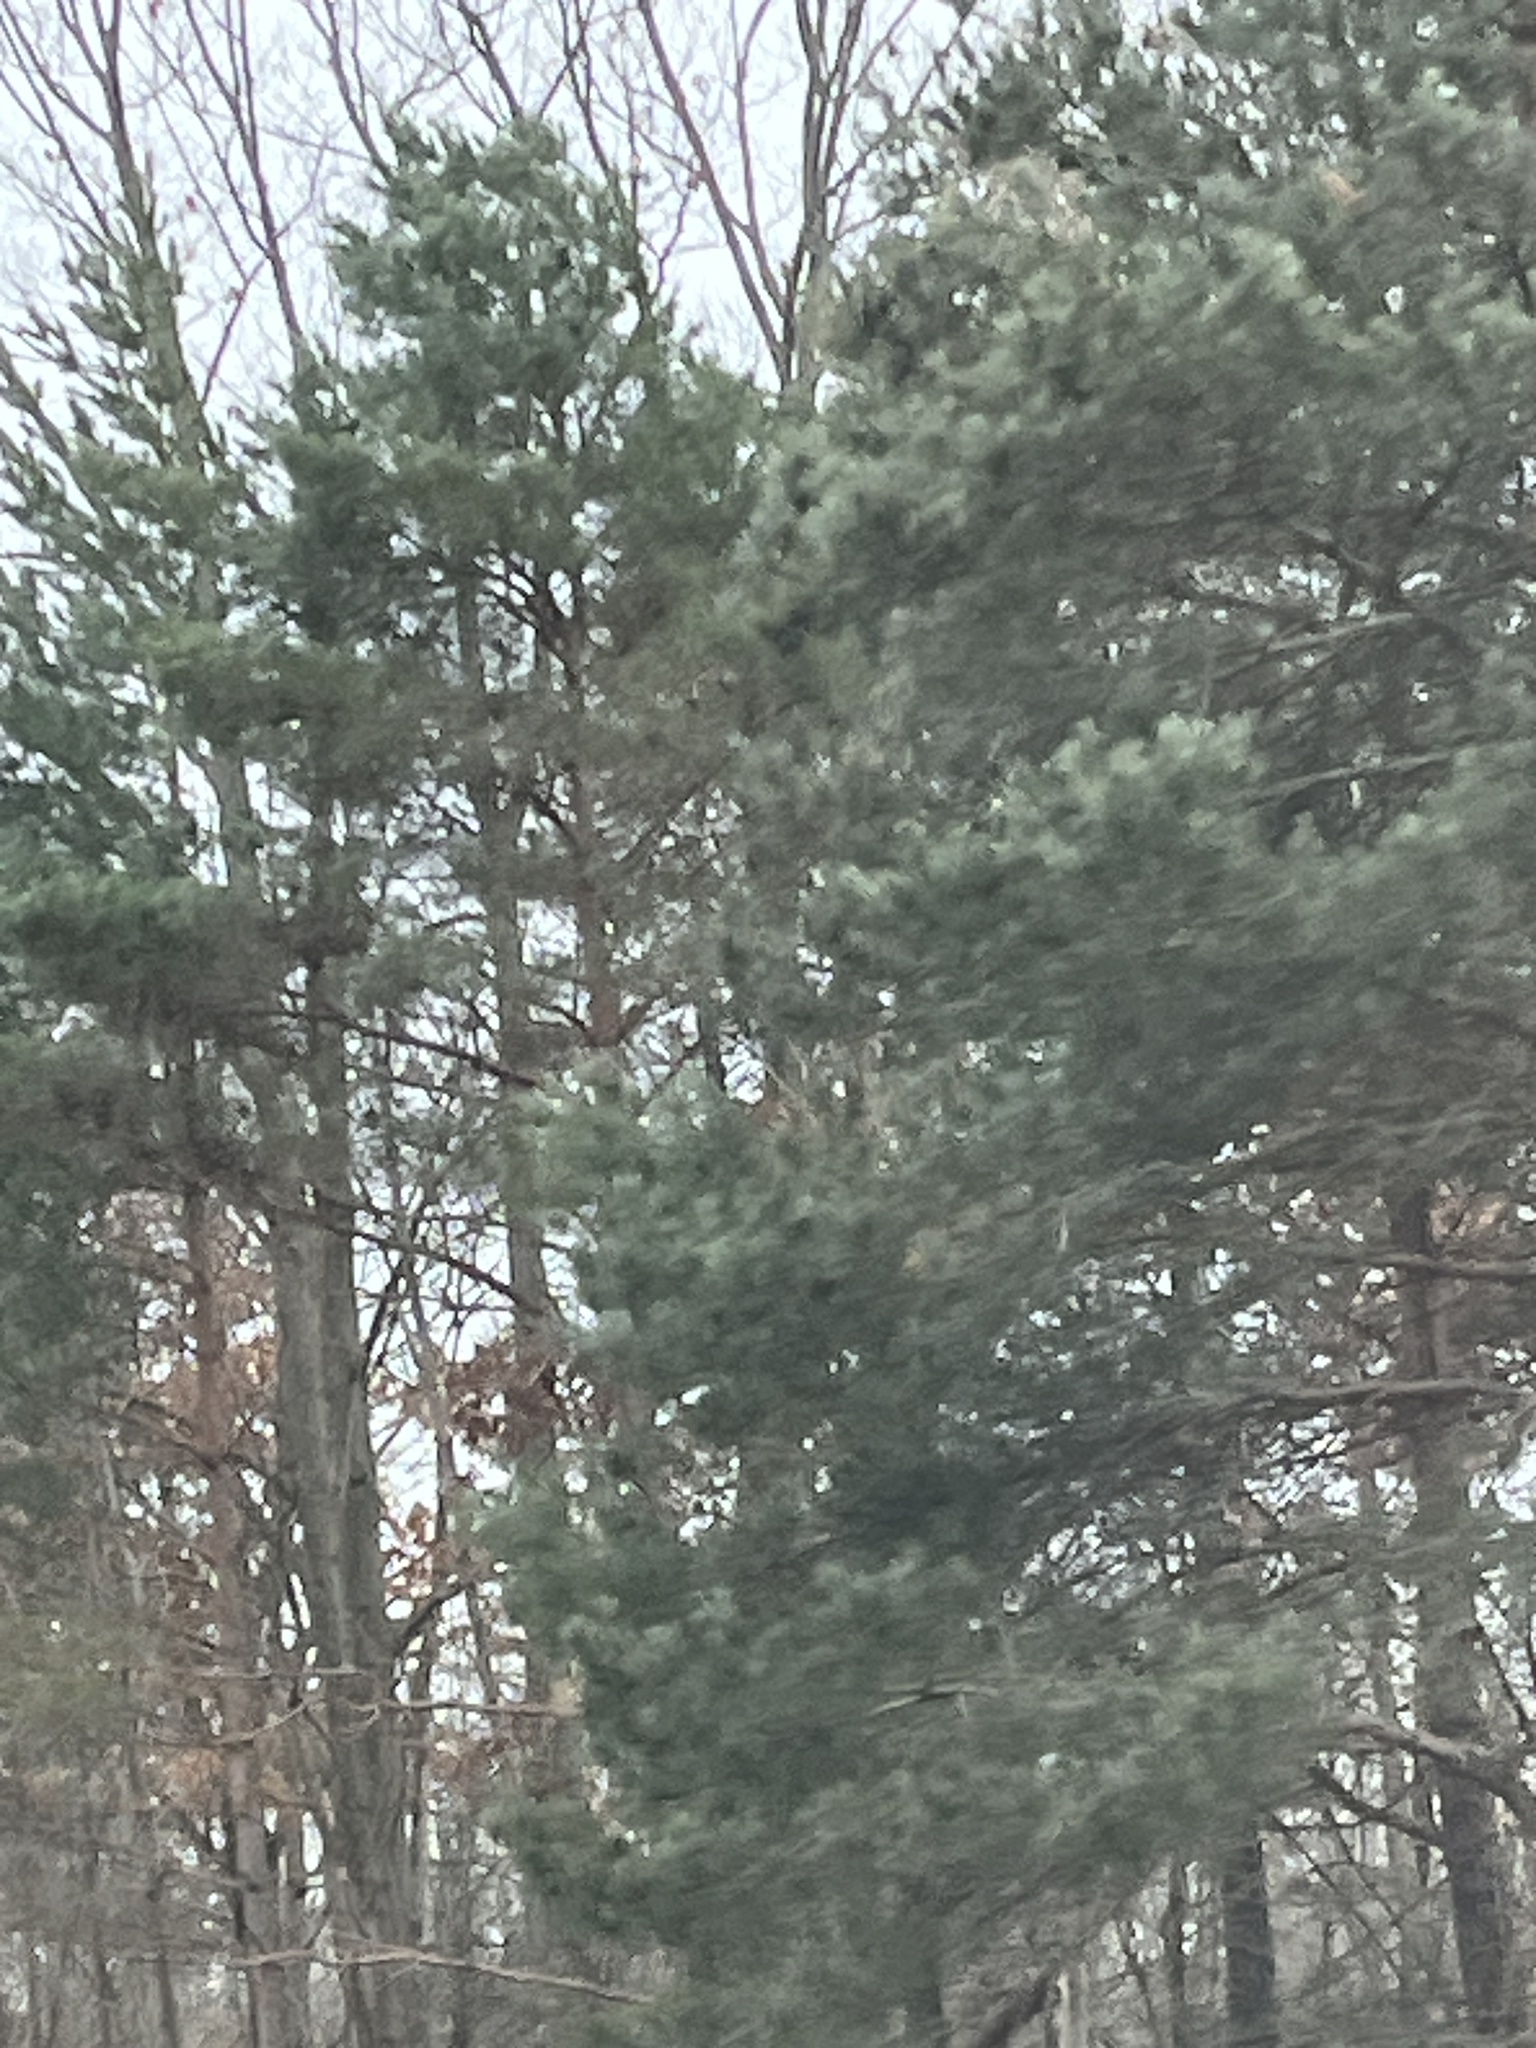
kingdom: Plantae
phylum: Tracheophyta
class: Pinopsida
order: Pinales
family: Pinaceae
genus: Pinus
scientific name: Pinus strobus
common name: Weymouth pine
